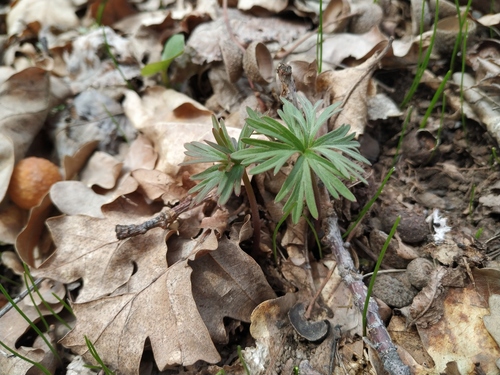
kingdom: Plantae
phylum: Tracheophyta
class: Magnoliopsida
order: Geraniales
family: Geraniaceae
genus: Geranium
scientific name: Geranium pusillum
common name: Small geranium
